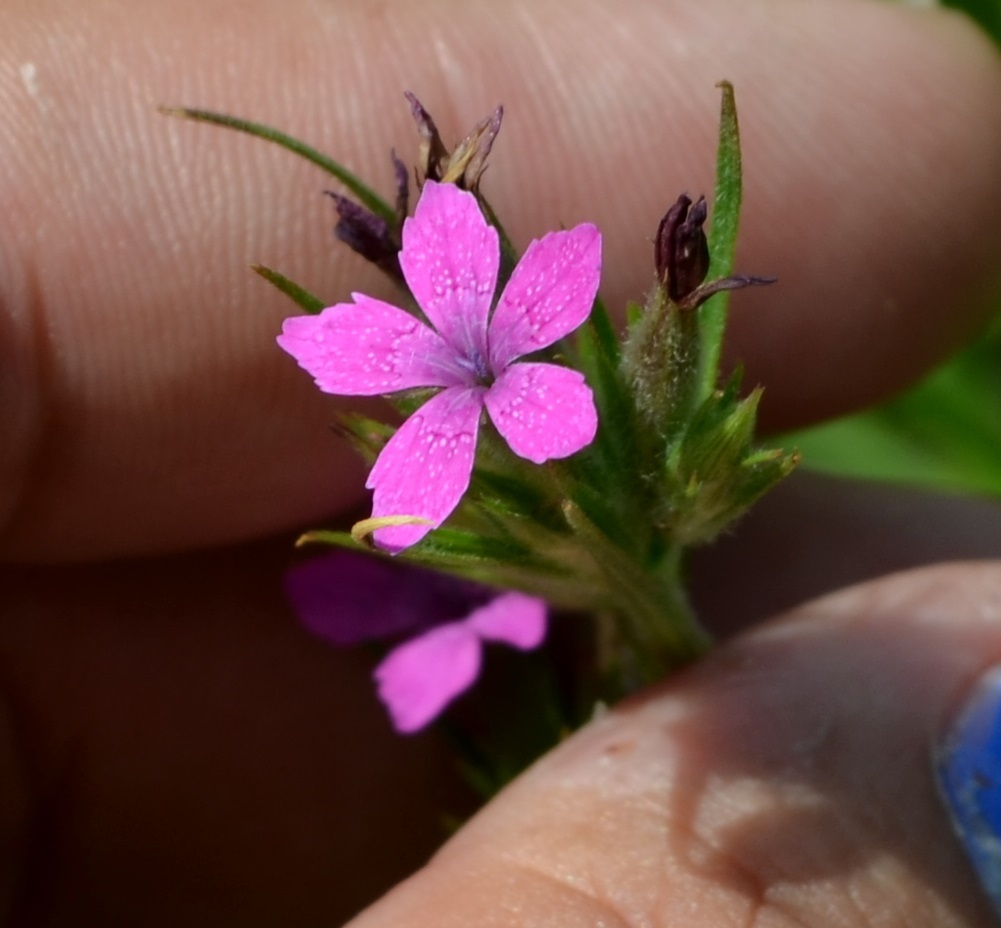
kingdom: Plantae
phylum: Tracheophyta
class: Magnoliopsida
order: Caryophyllales
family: Caryophyllaceae
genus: Dianthus
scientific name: Dianthus armeria
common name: Deptford pink
